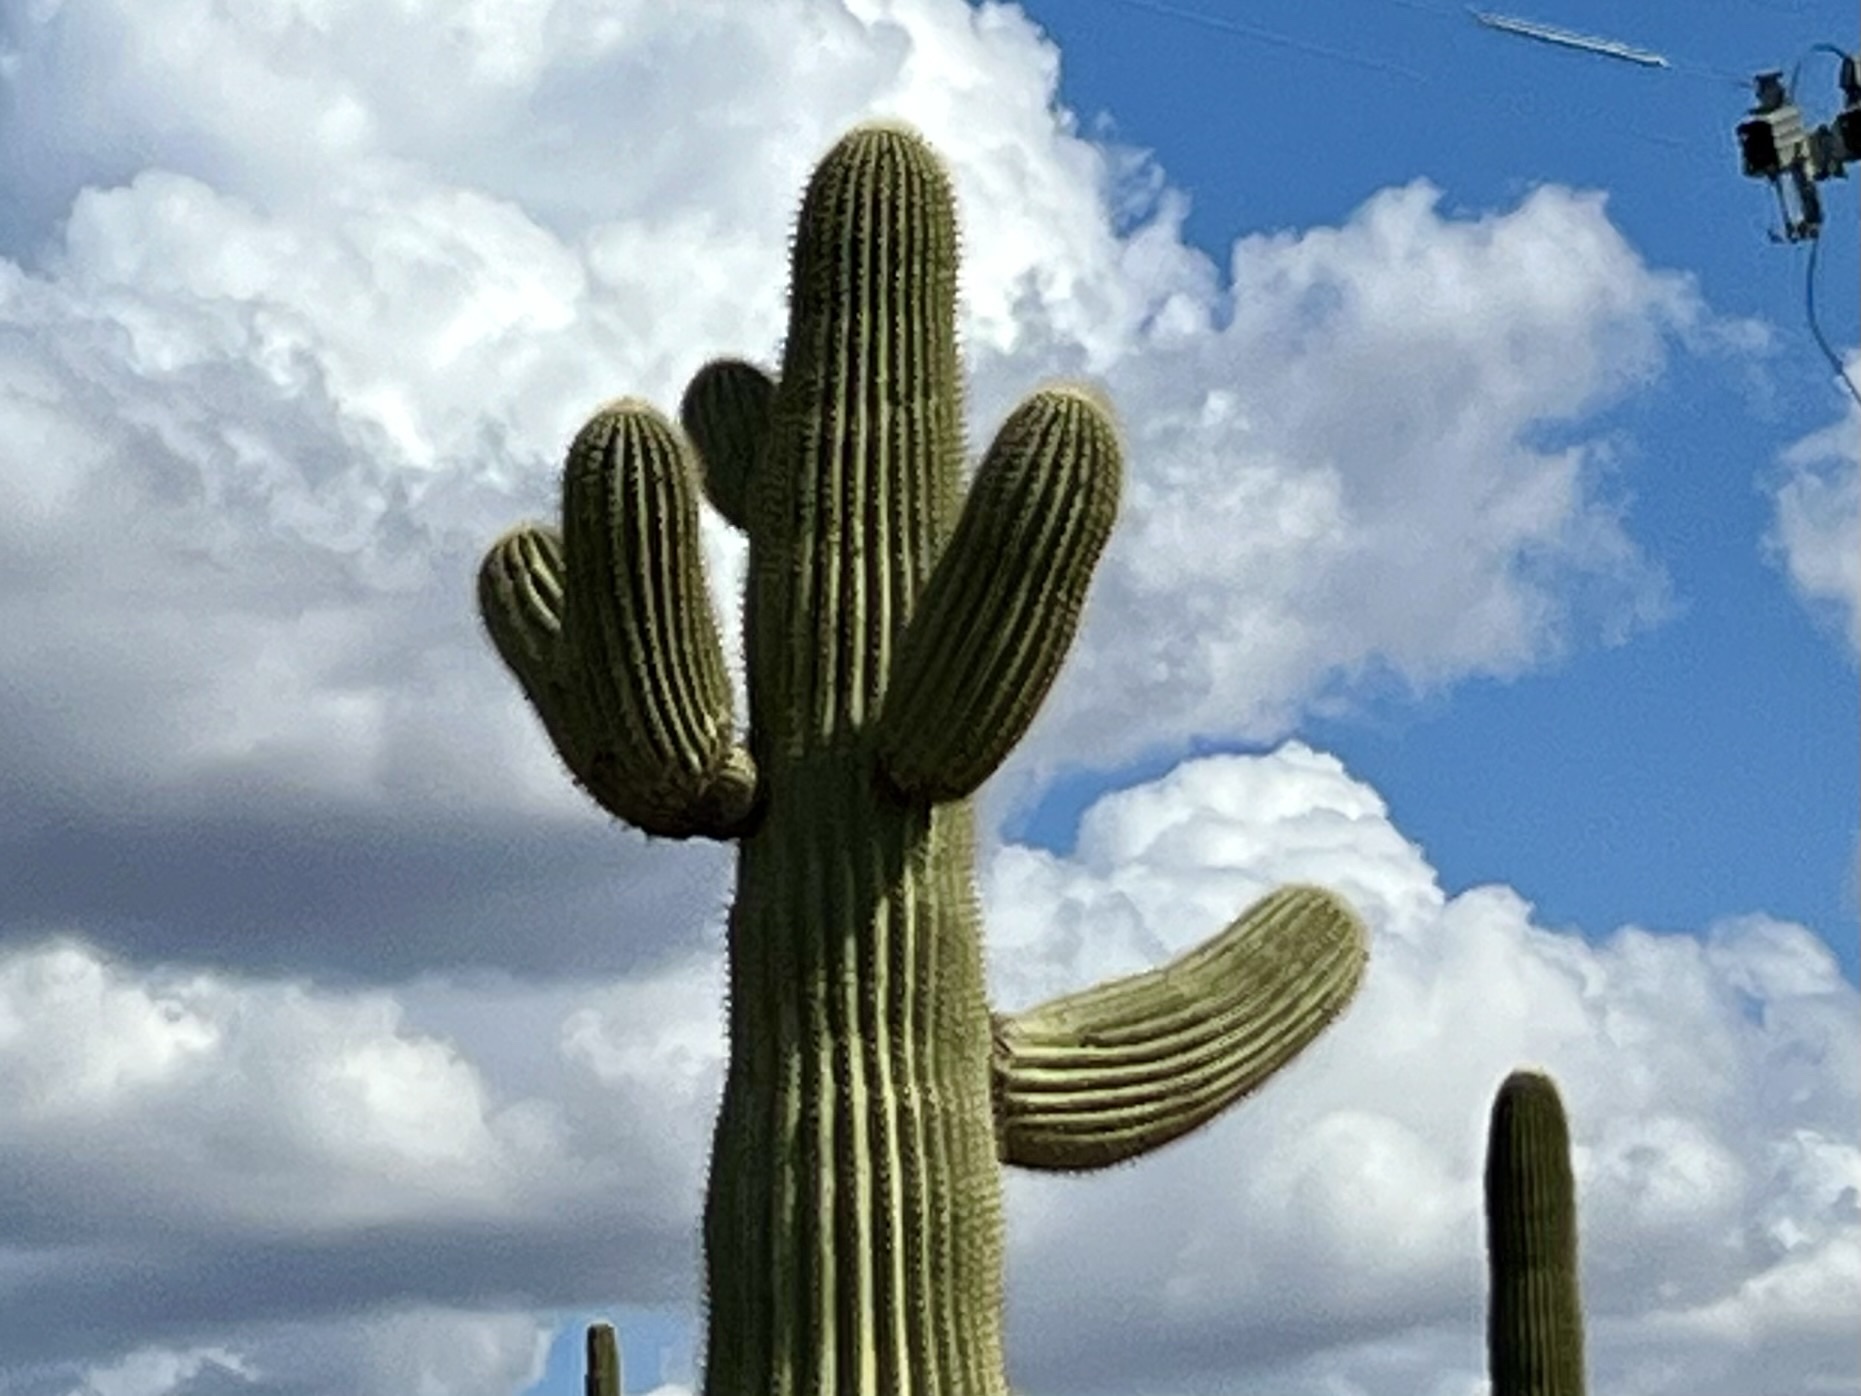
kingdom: Plantae
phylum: Tracheophyta
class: Magnoliopsida
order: Caryophyllales
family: Cactaceae
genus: Carnegiea
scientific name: Carnegiea gigantea
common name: Saguaro
